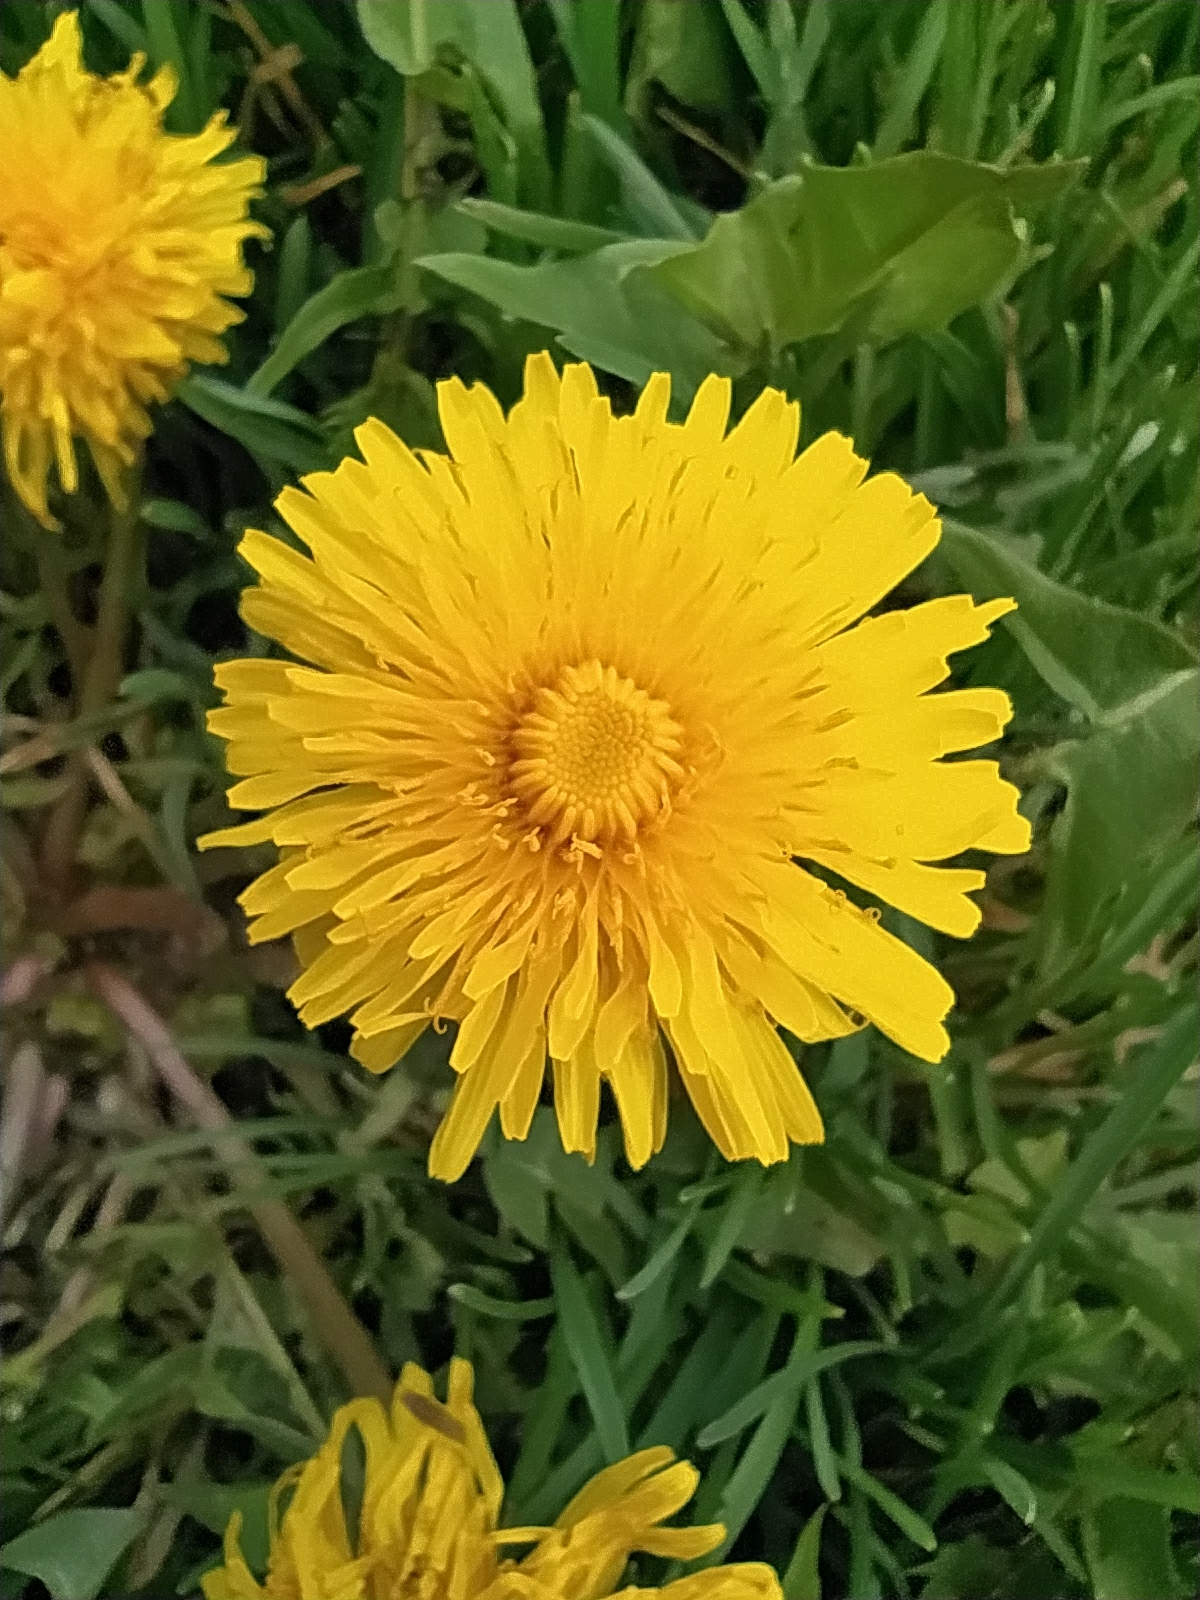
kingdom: Plantae
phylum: Tracheophyta
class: Magnoliopsida
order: Asterales
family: Asteraceae
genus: Taraxacum
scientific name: Taraxacum officinale
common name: Common dandelion
